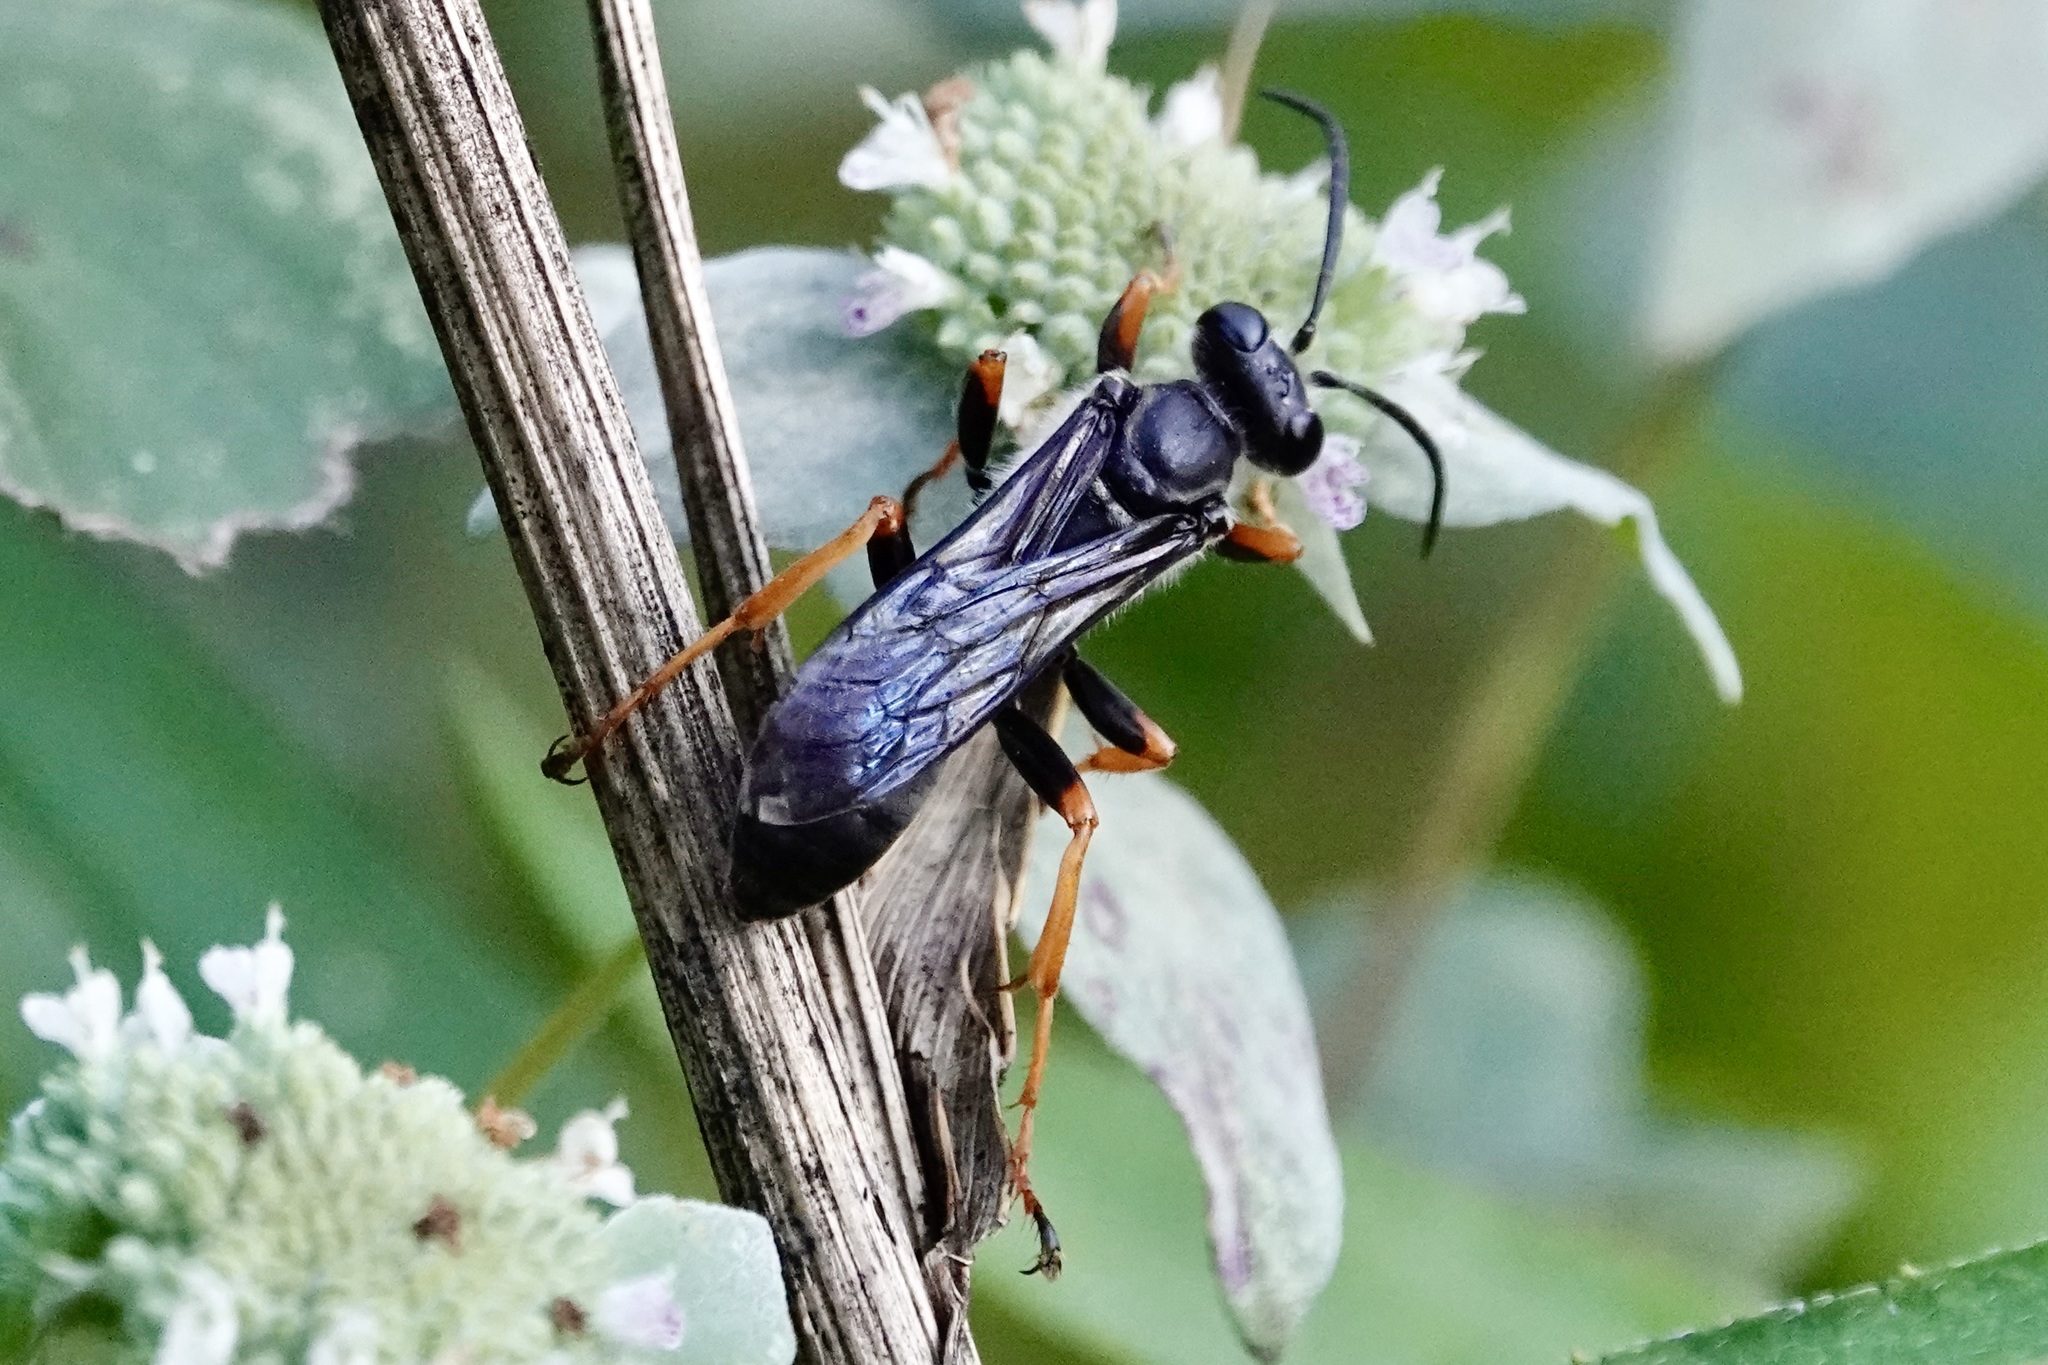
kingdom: Animalia
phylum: Arthropoda
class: Insecta
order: Hymenoptera
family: Sphecidae
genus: Sphex
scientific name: Sphex nudus
